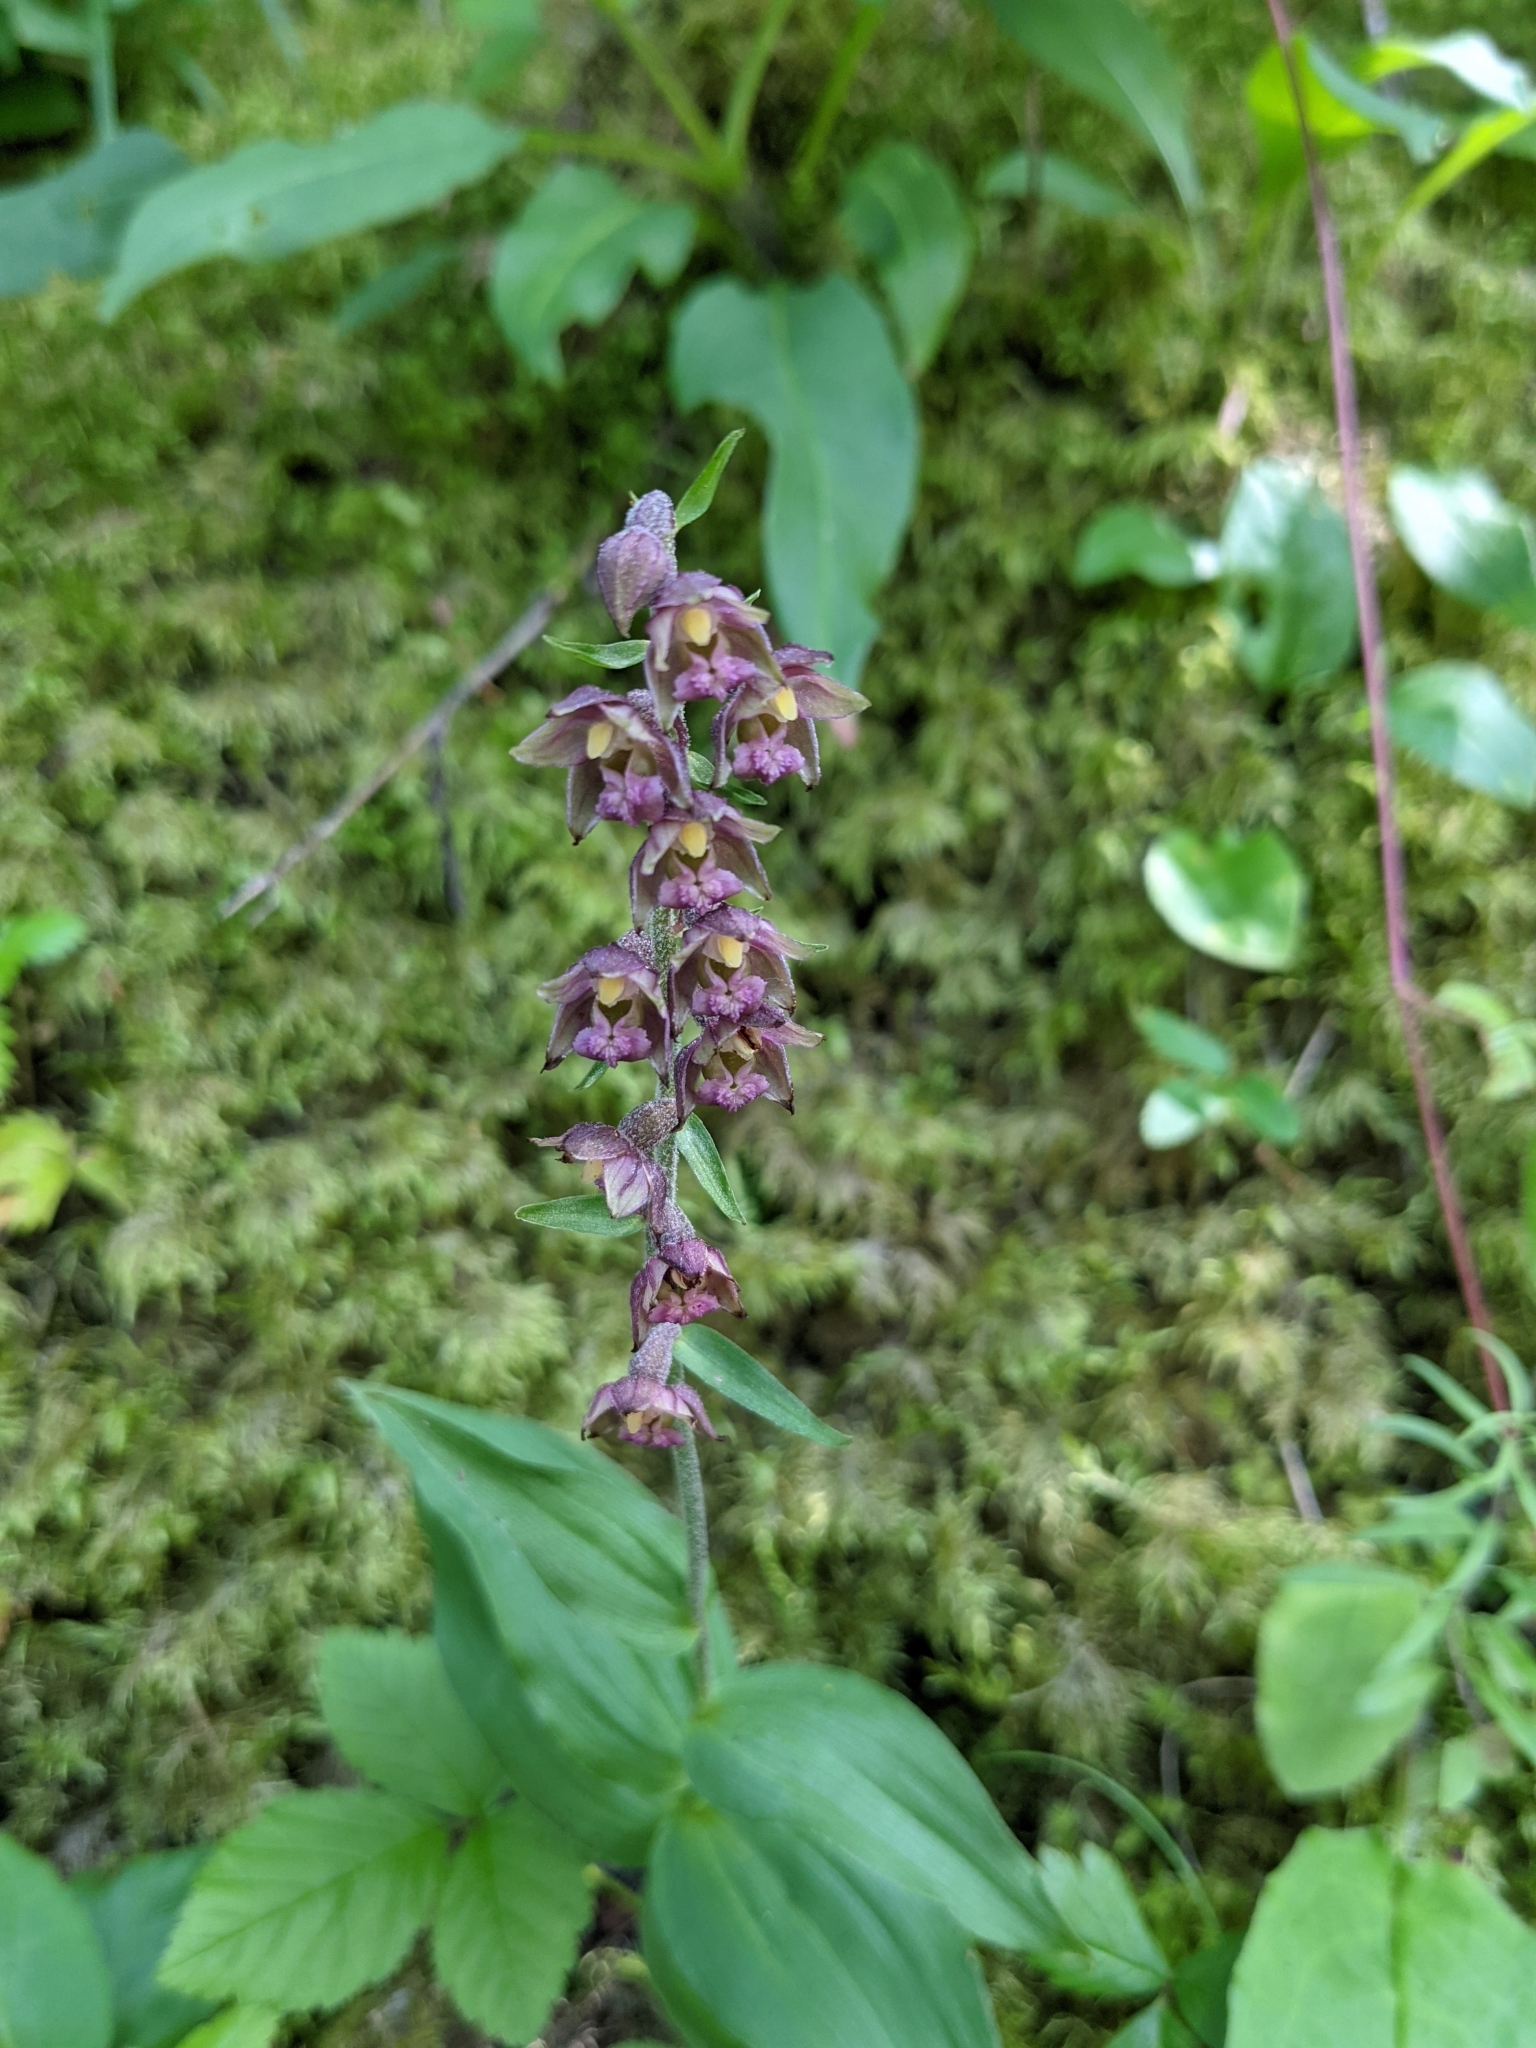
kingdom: Plantae
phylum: Tracheophyta
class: Liliopsida
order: Asparagales
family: Orchidaceae
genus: Epipactis
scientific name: Epipactis atrorubens
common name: Dark-red helleborine
